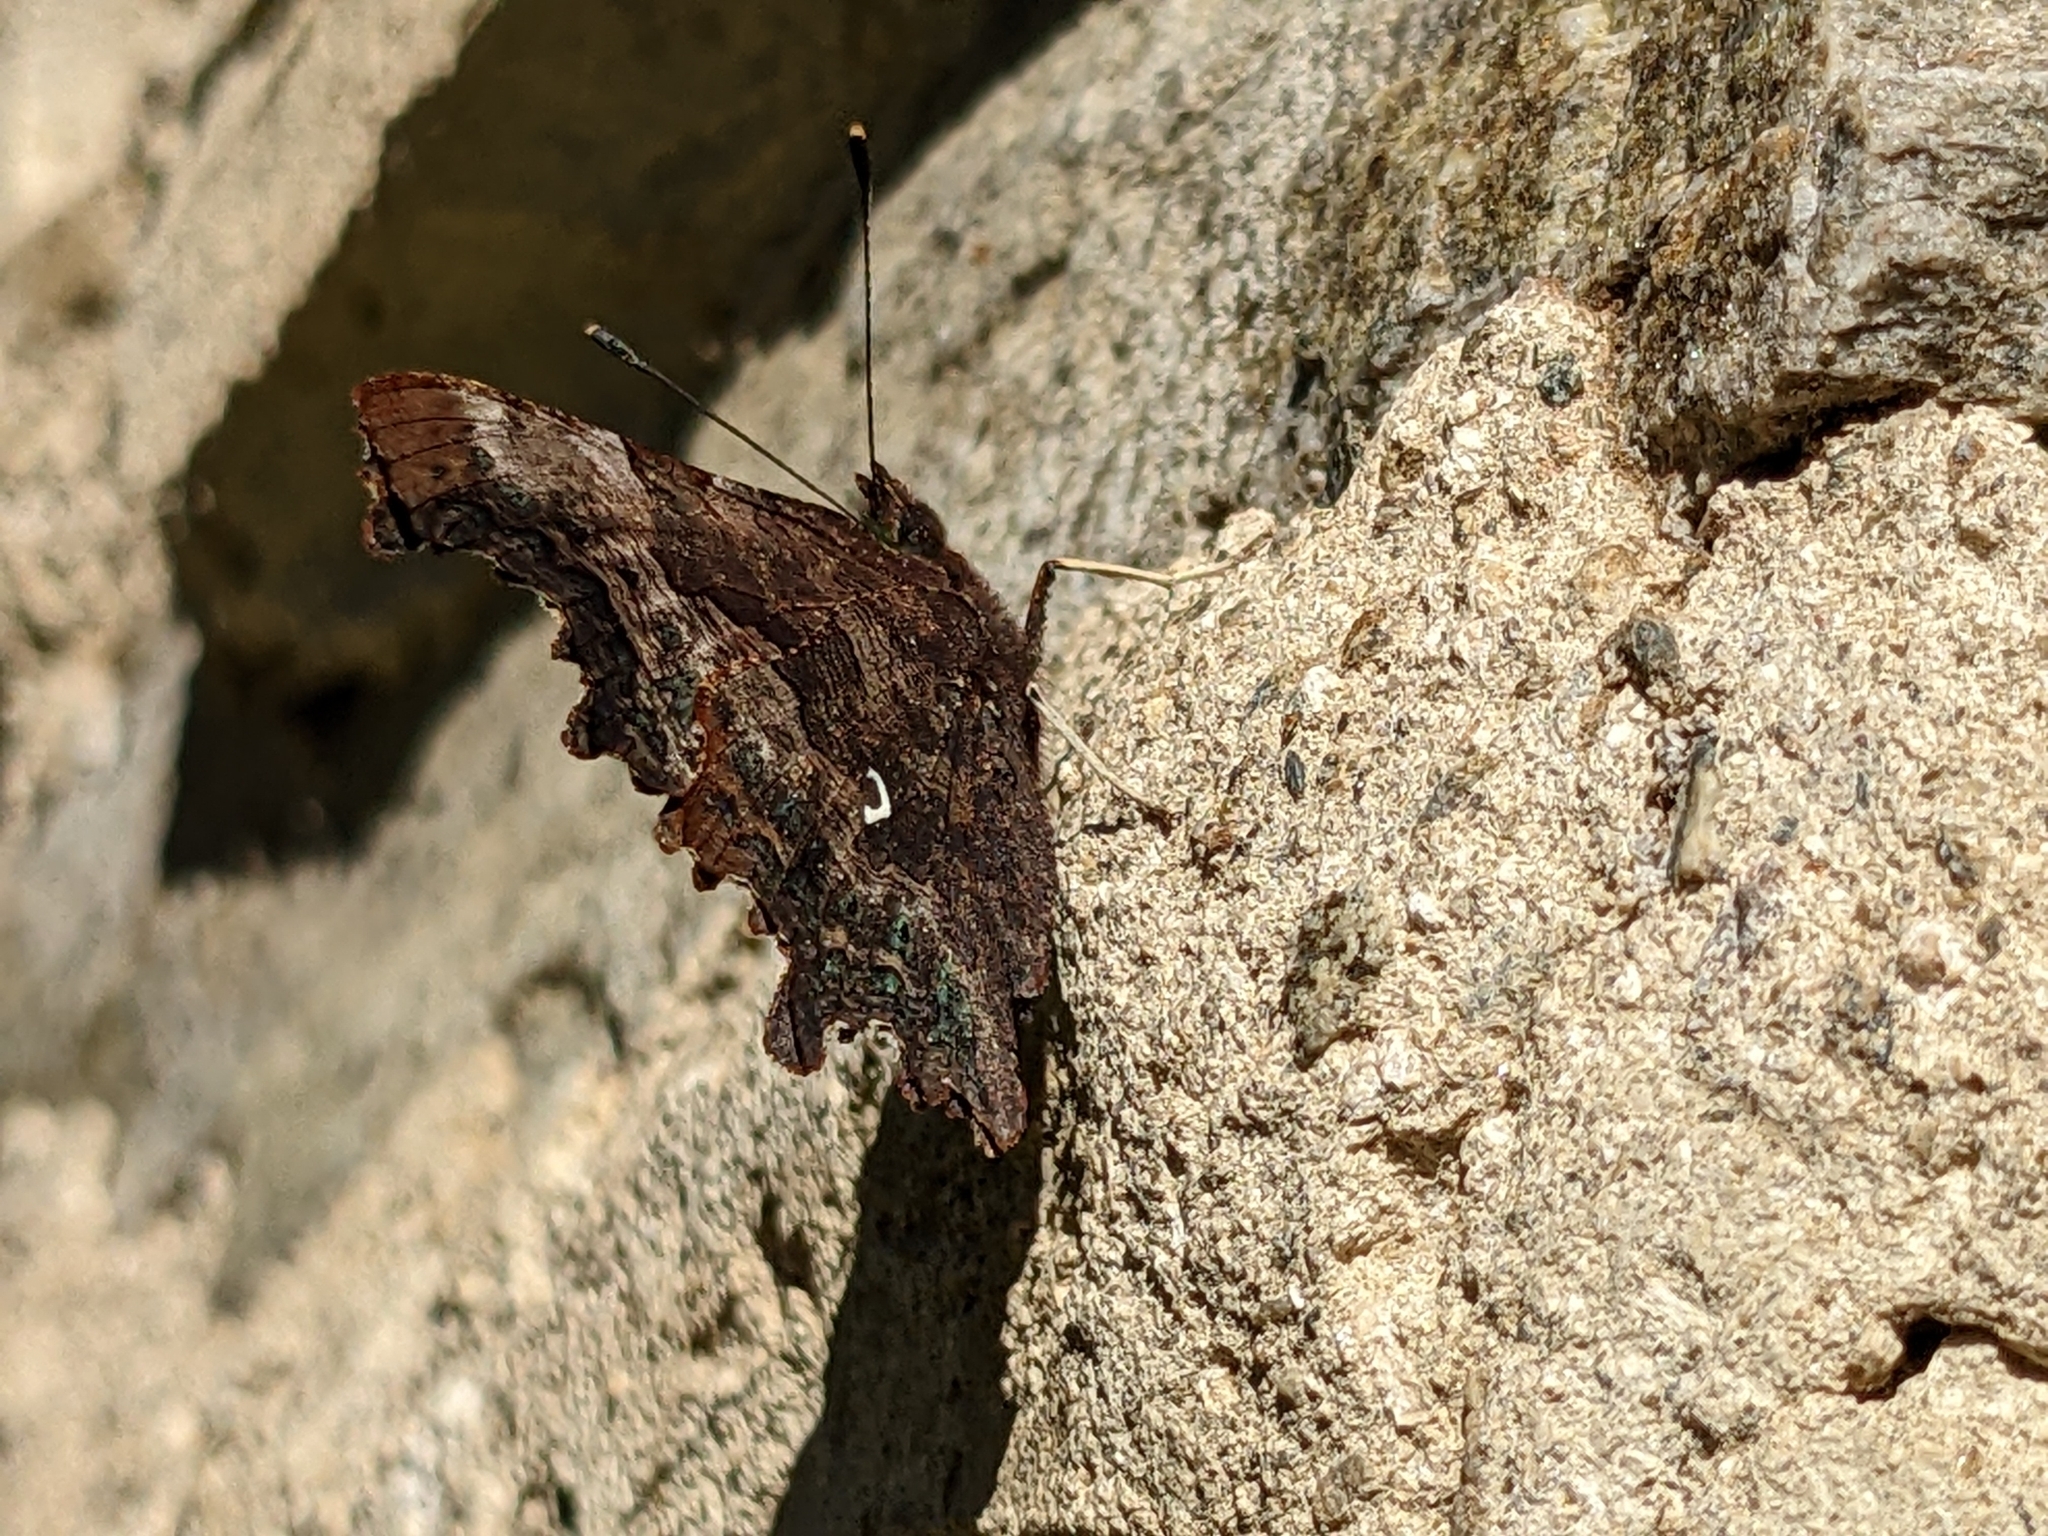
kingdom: Animalia
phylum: Arthropoda
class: Insecta
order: Lepidoptera
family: Nymphalidae
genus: Polygonia
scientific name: Polygonia c-album
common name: Comma
